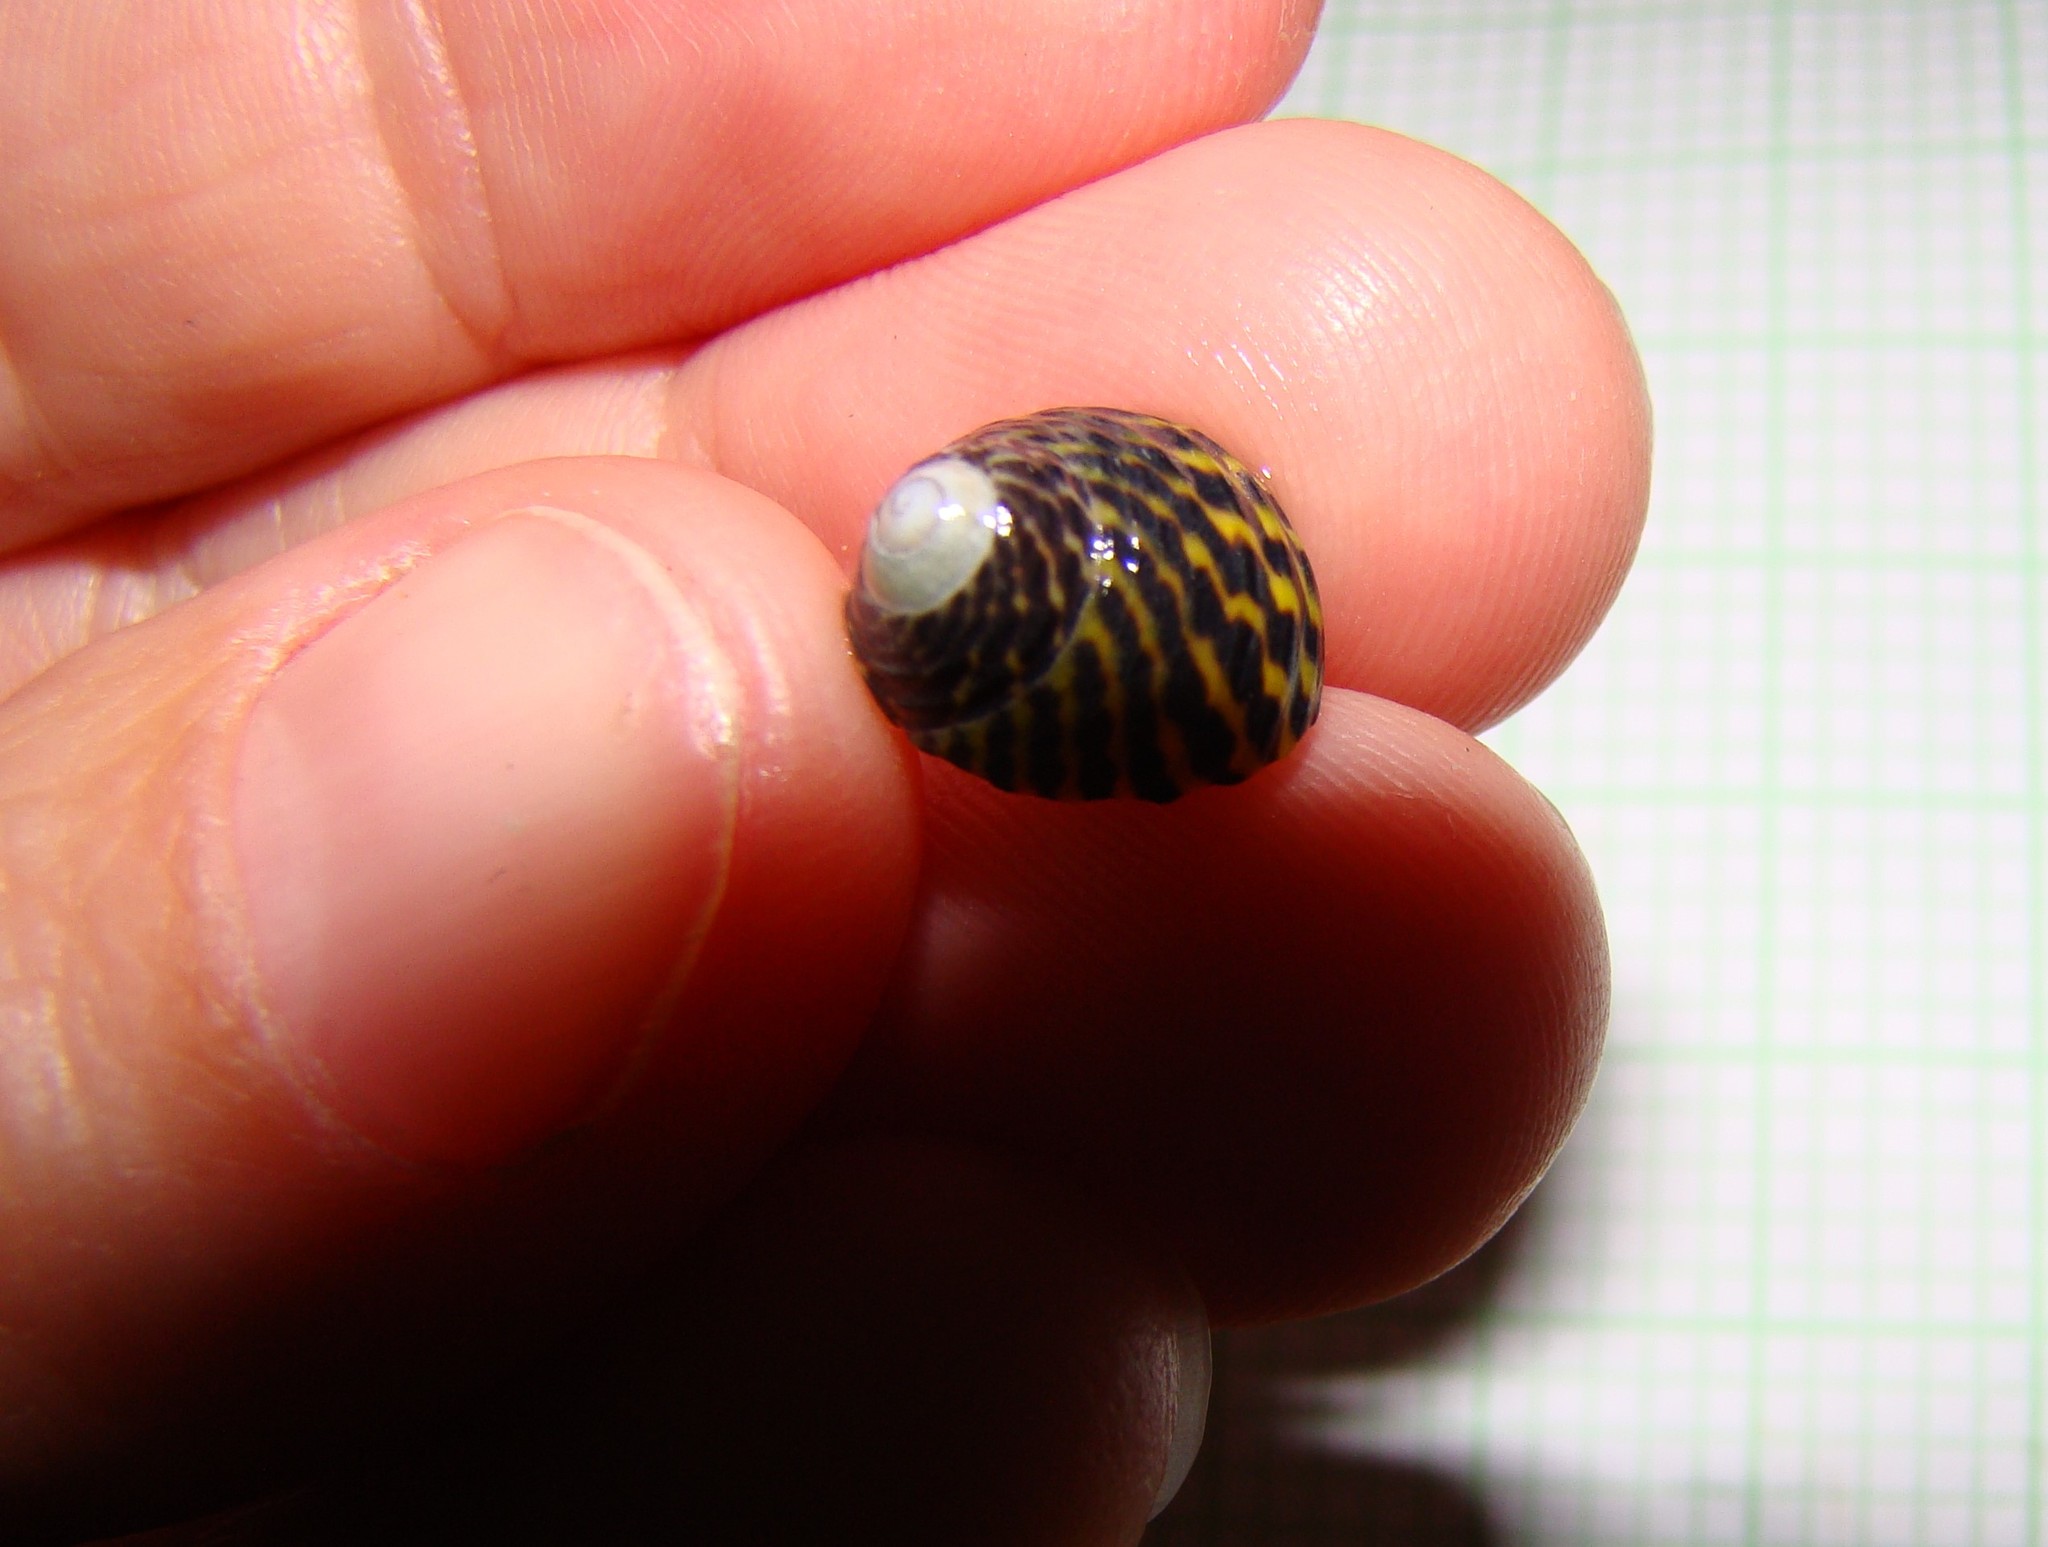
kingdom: Animalia
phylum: Mollusca
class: Gastropoda
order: Trochida
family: Trochidae
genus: Diloma
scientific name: Diloma subrostratum
